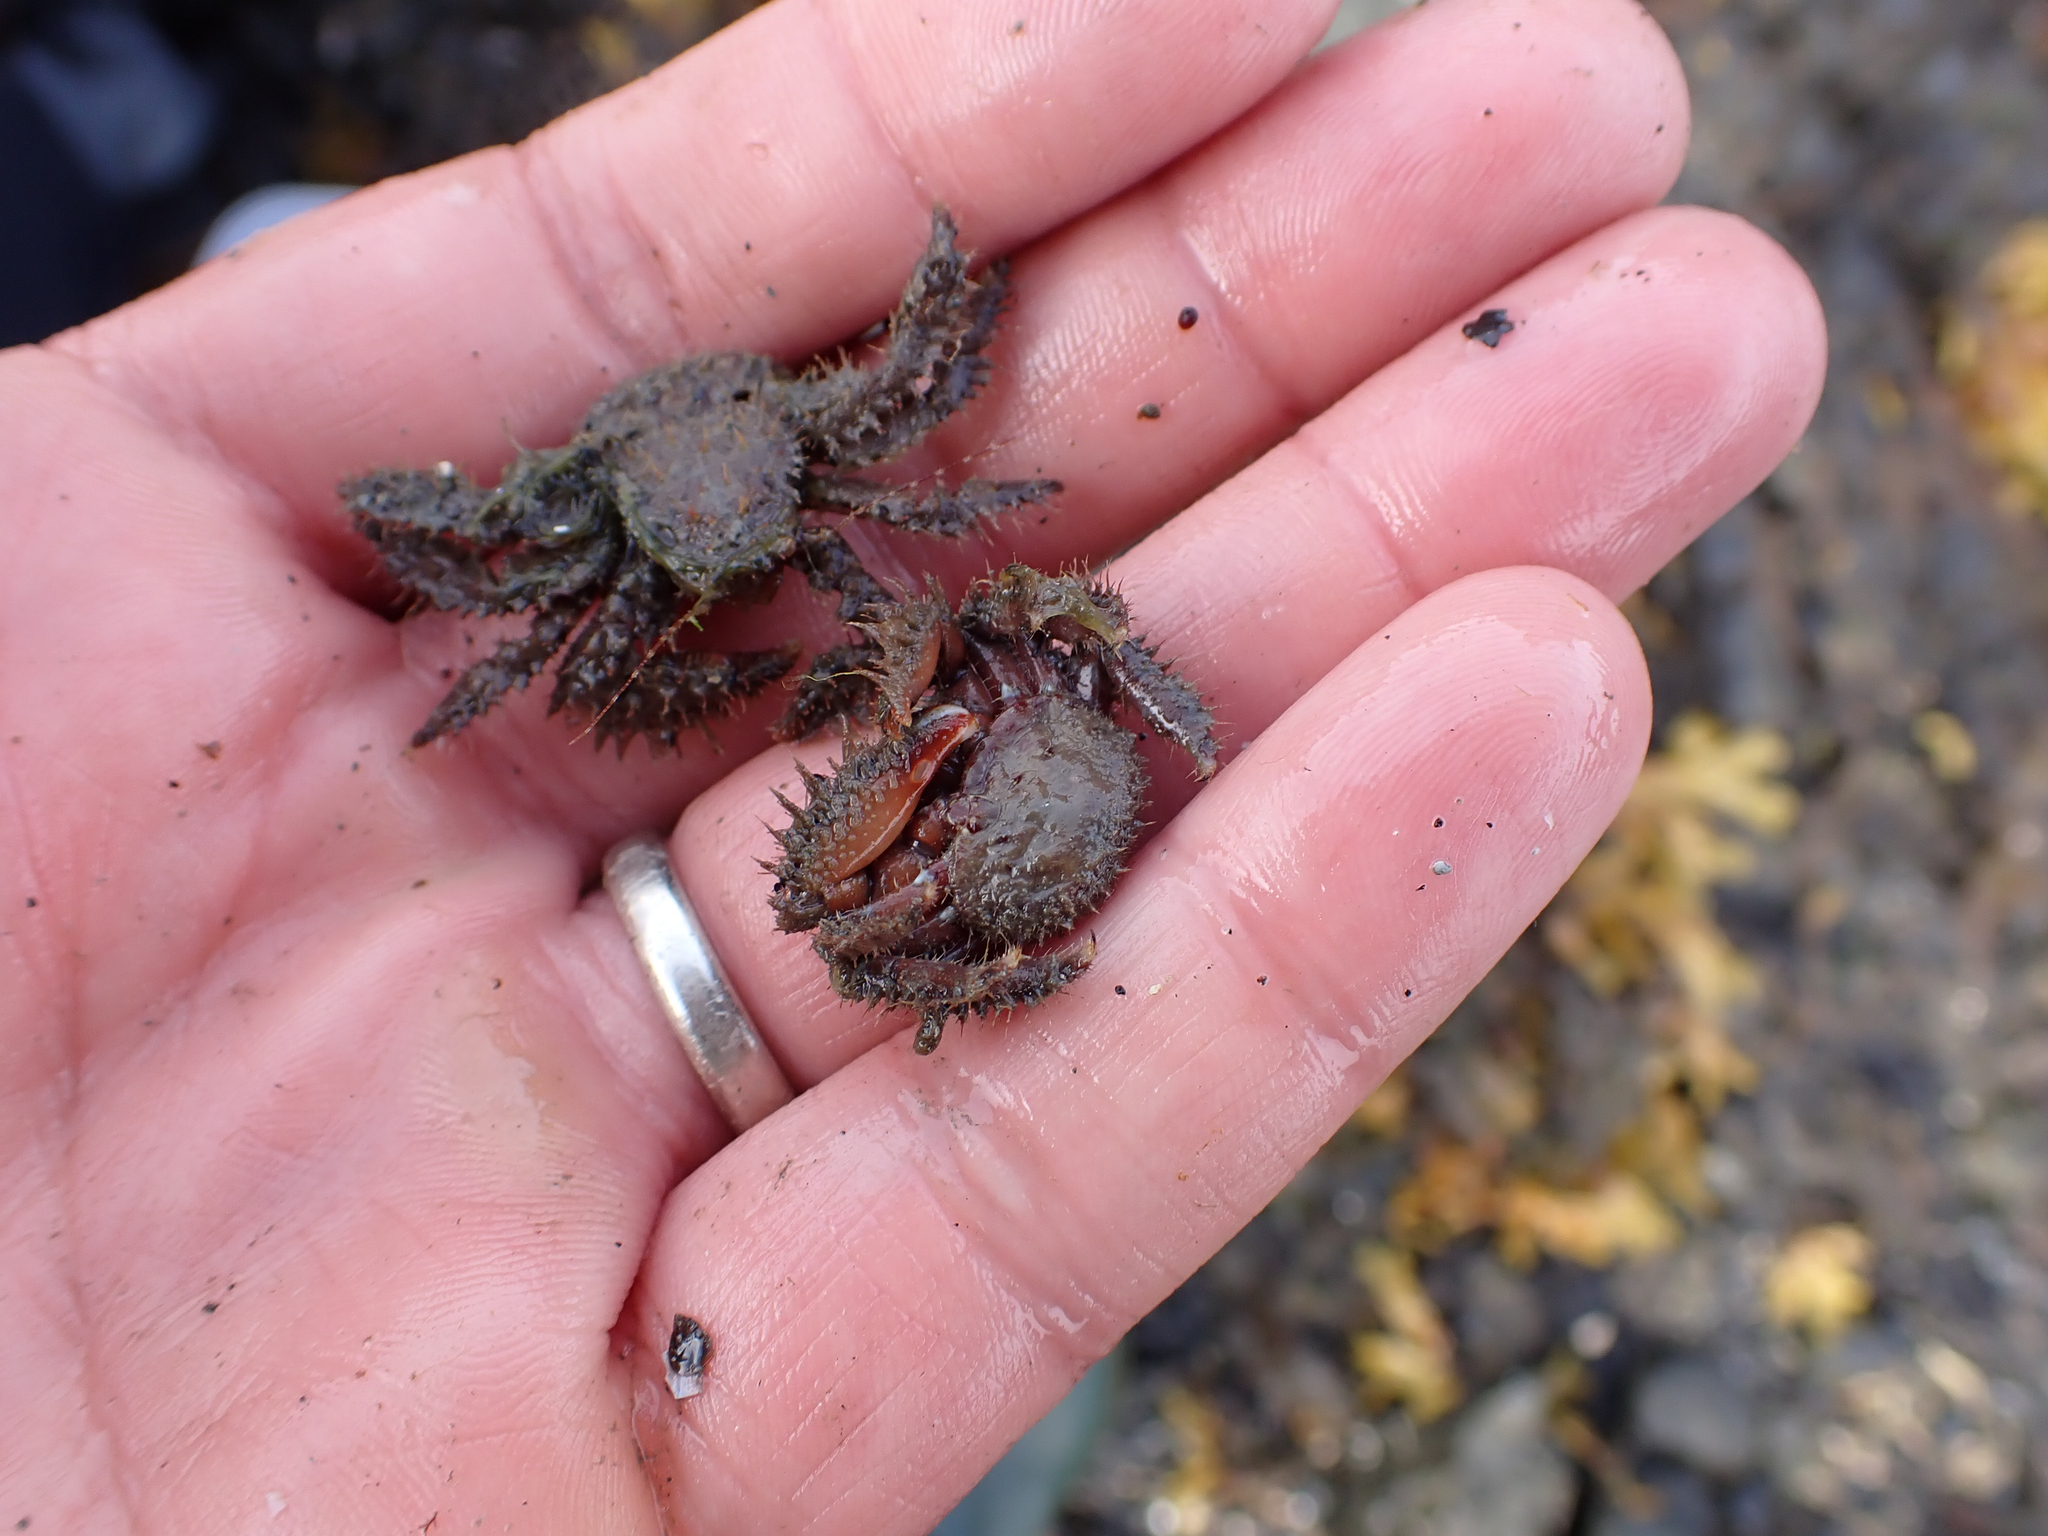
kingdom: Animalia
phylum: Arthropoda
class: Malacostraca
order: Decapoda
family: Hapalogastridae
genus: Hapalogaster
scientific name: Hapalogaster mertensii
